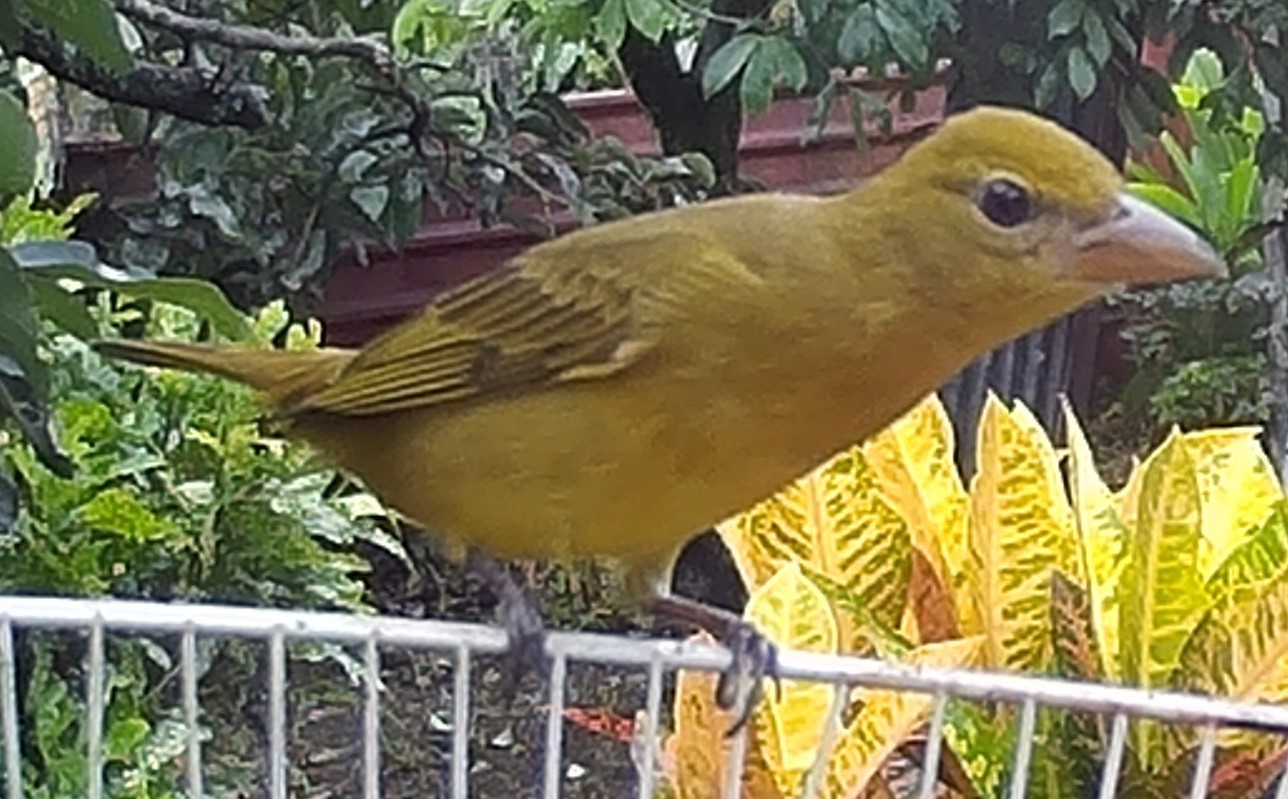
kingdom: Animalia
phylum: Chordata
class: Aves
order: Passeriformes
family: Cardinalidae
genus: Piranga
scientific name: Piranga rubra
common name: Summer tanager
